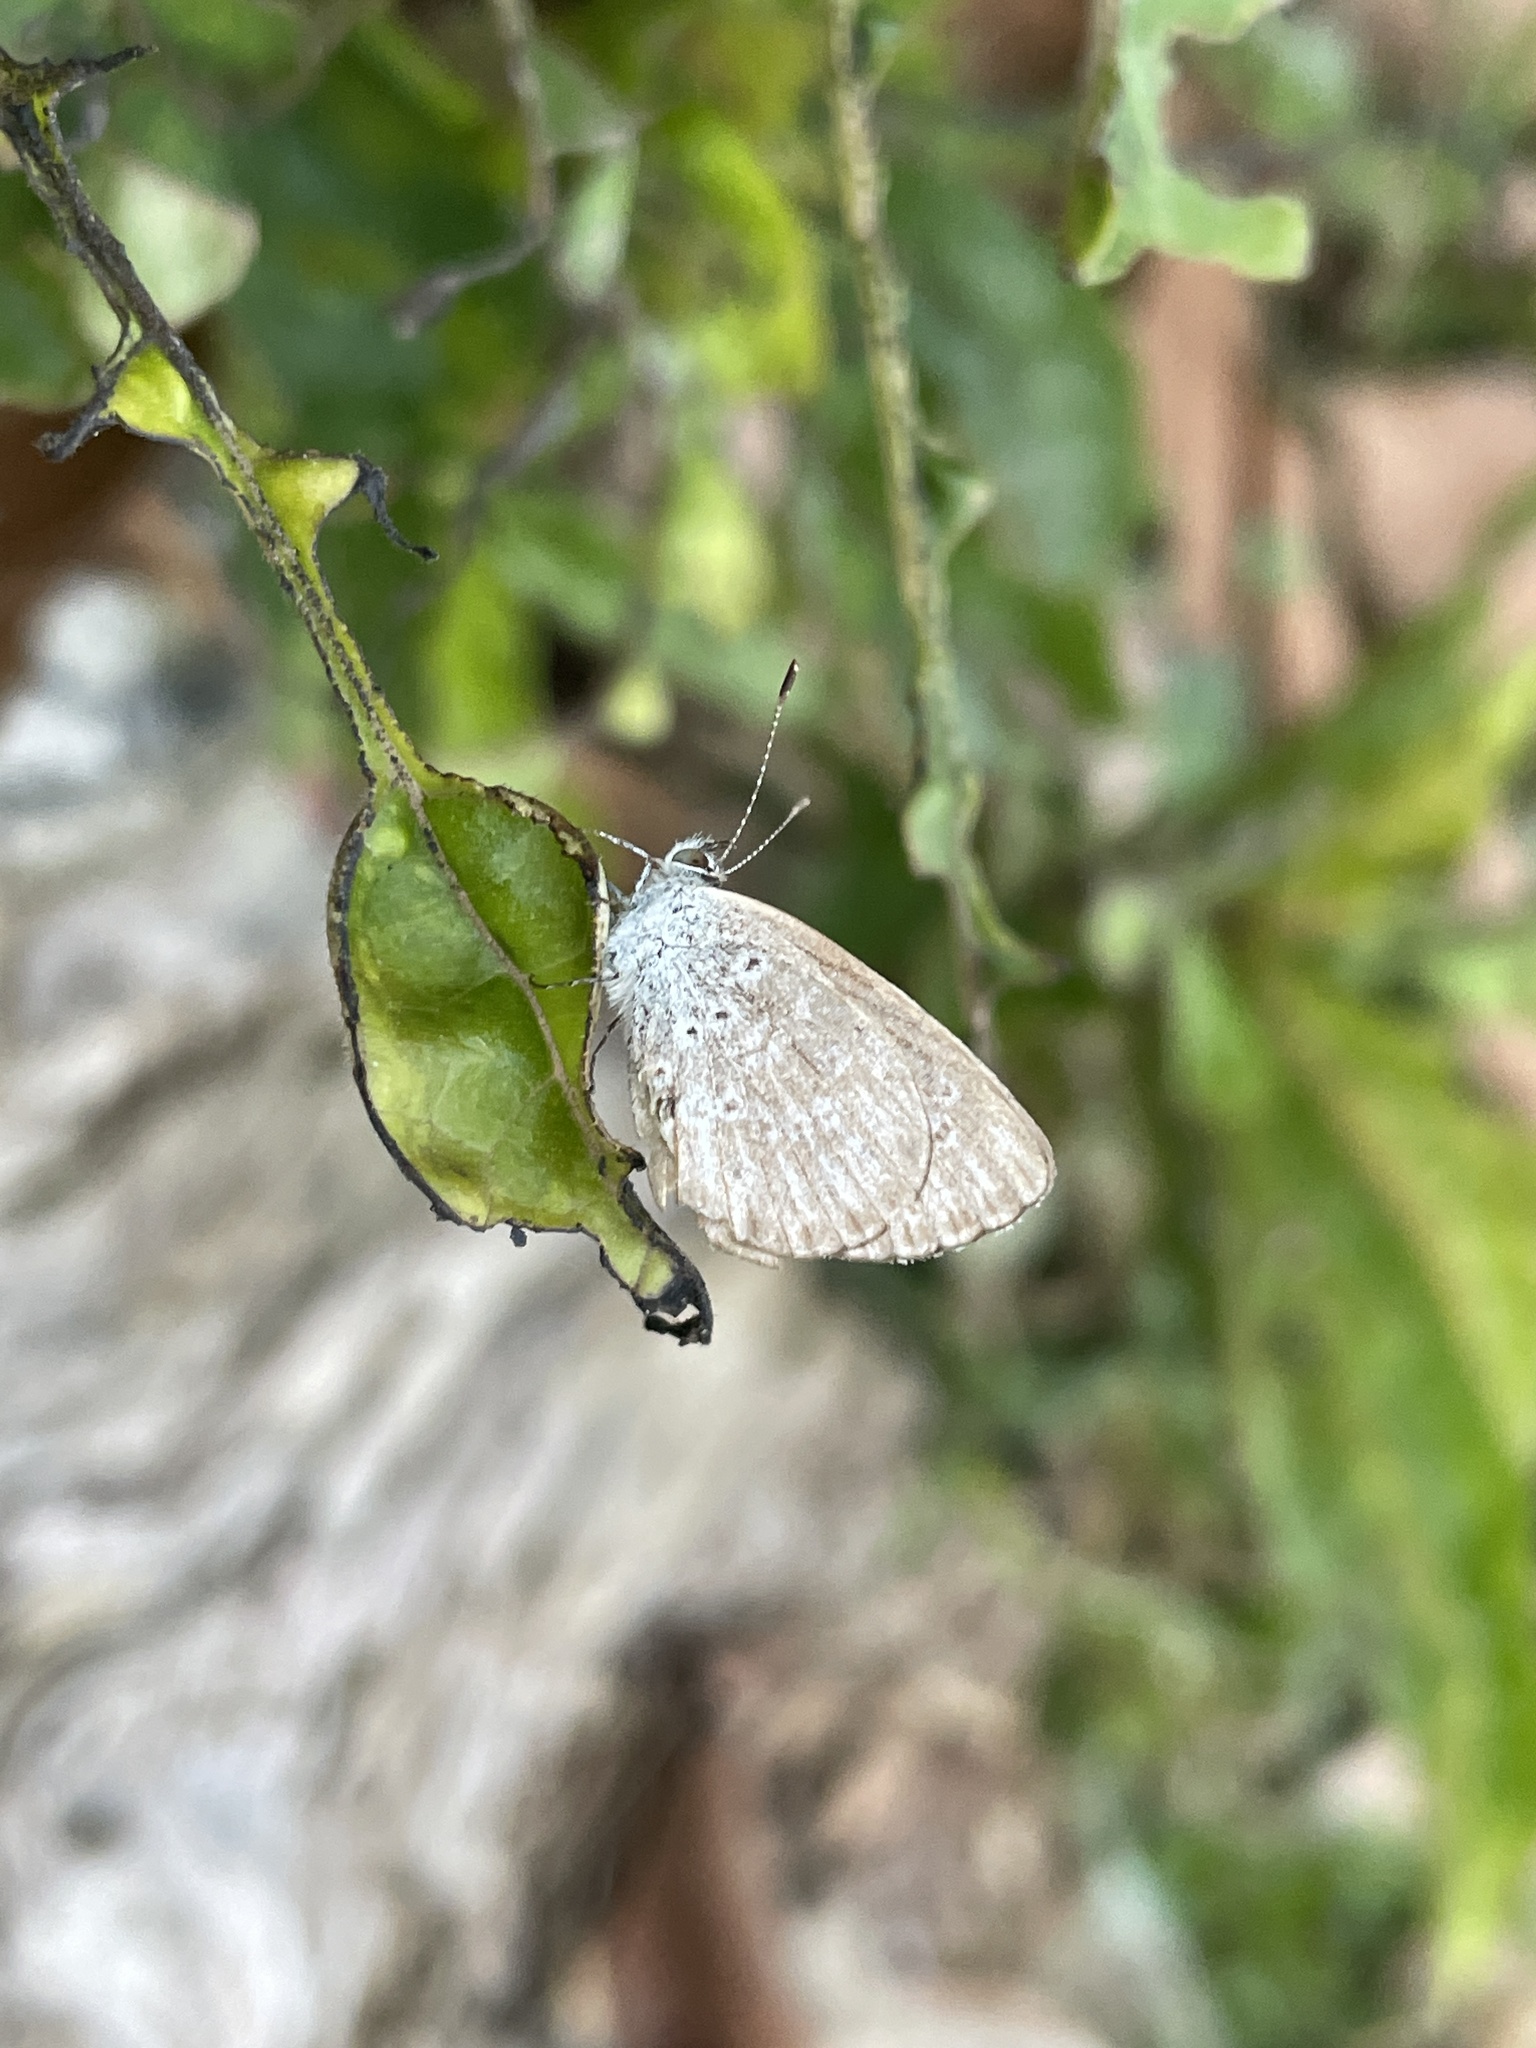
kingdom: Animalia
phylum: Arthropoda
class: Insecta
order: Lepidoptera
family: Lycaenidae
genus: Pseudozizeeria
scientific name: Pseudozizeeria maha
